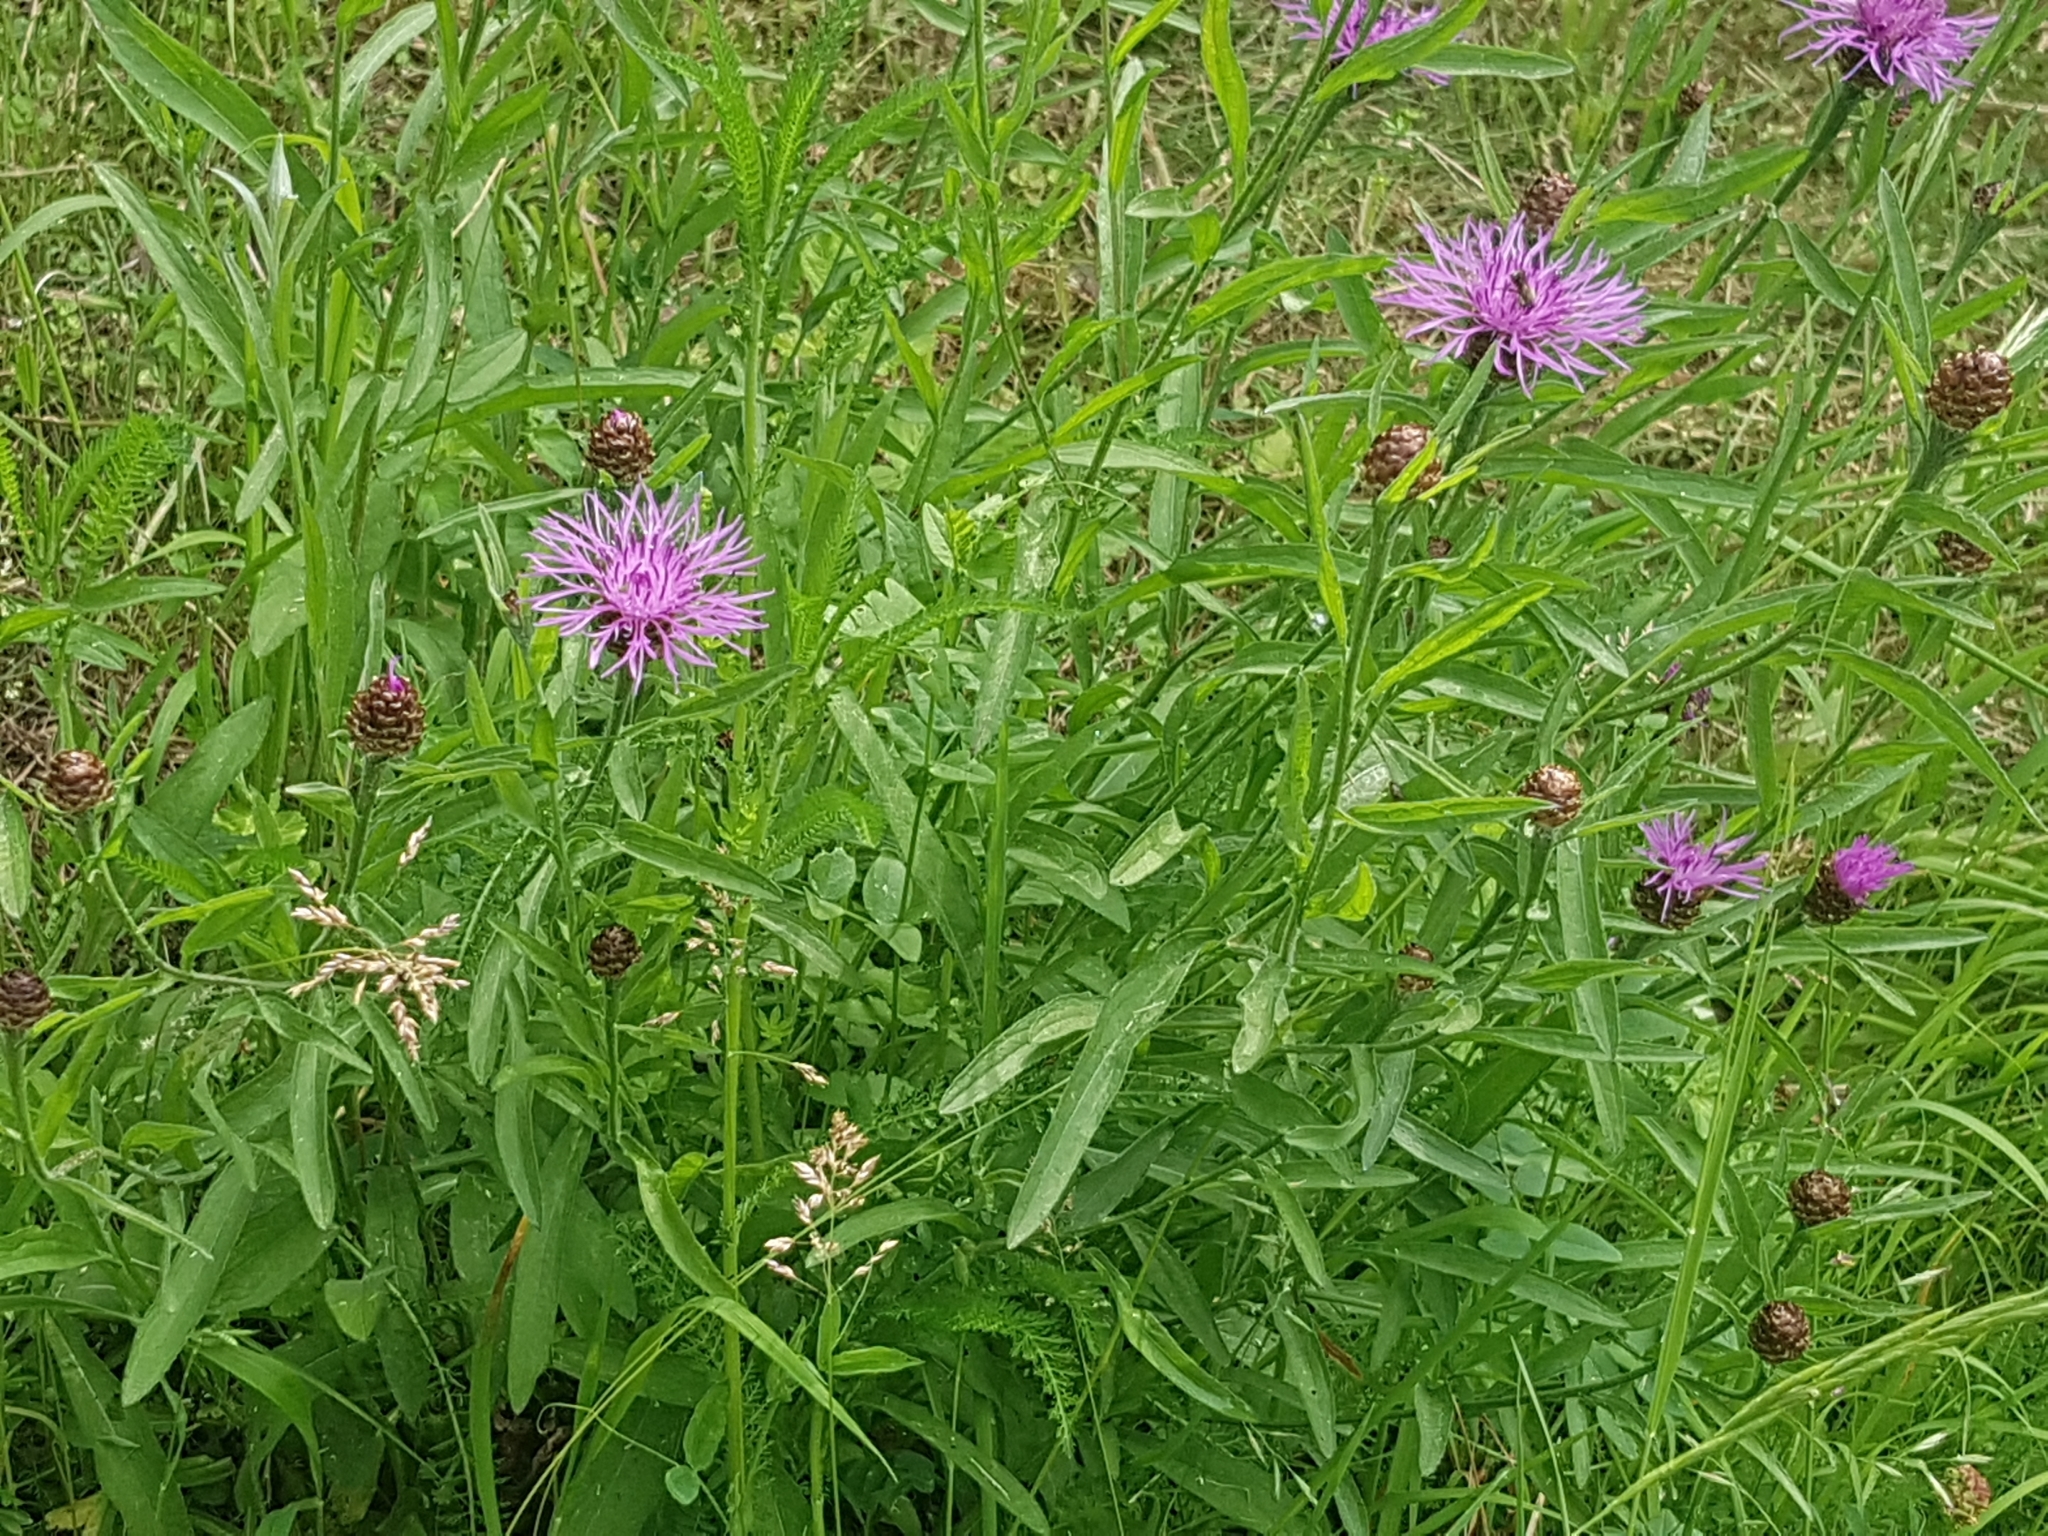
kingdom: Plantae
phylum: Tracheophyta
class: Magnoliopsida
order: Asterales
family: Asteraceae
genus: Centaurea
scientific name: Centaurea jacea
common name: Brown knapweed
